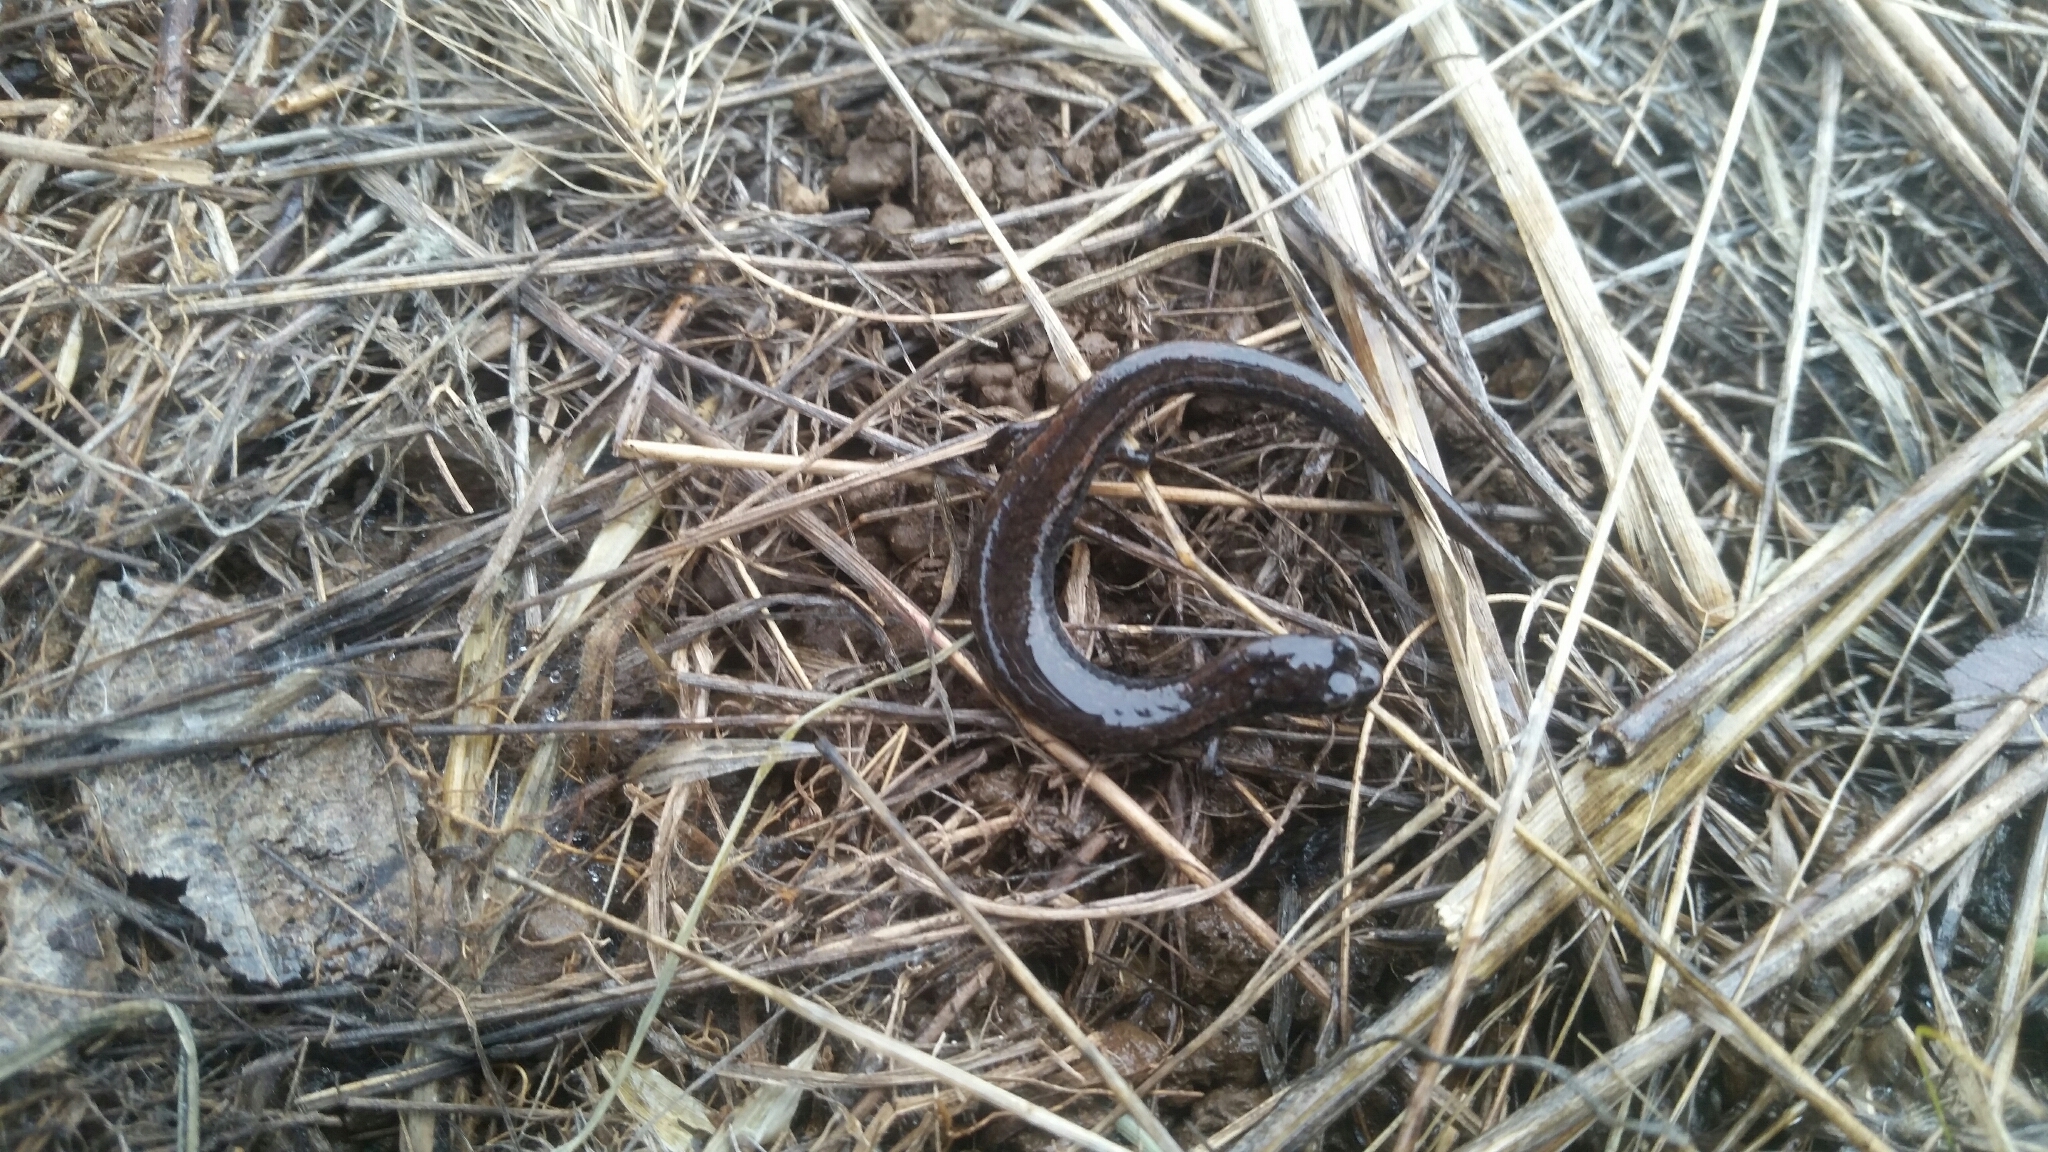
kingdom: Animalia
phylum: Chordata
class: Amphibia
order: Caudata
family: Plethodontidae
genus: Batrachoseps
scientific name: Batrachoseps attenuatus
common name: California slender salamander
